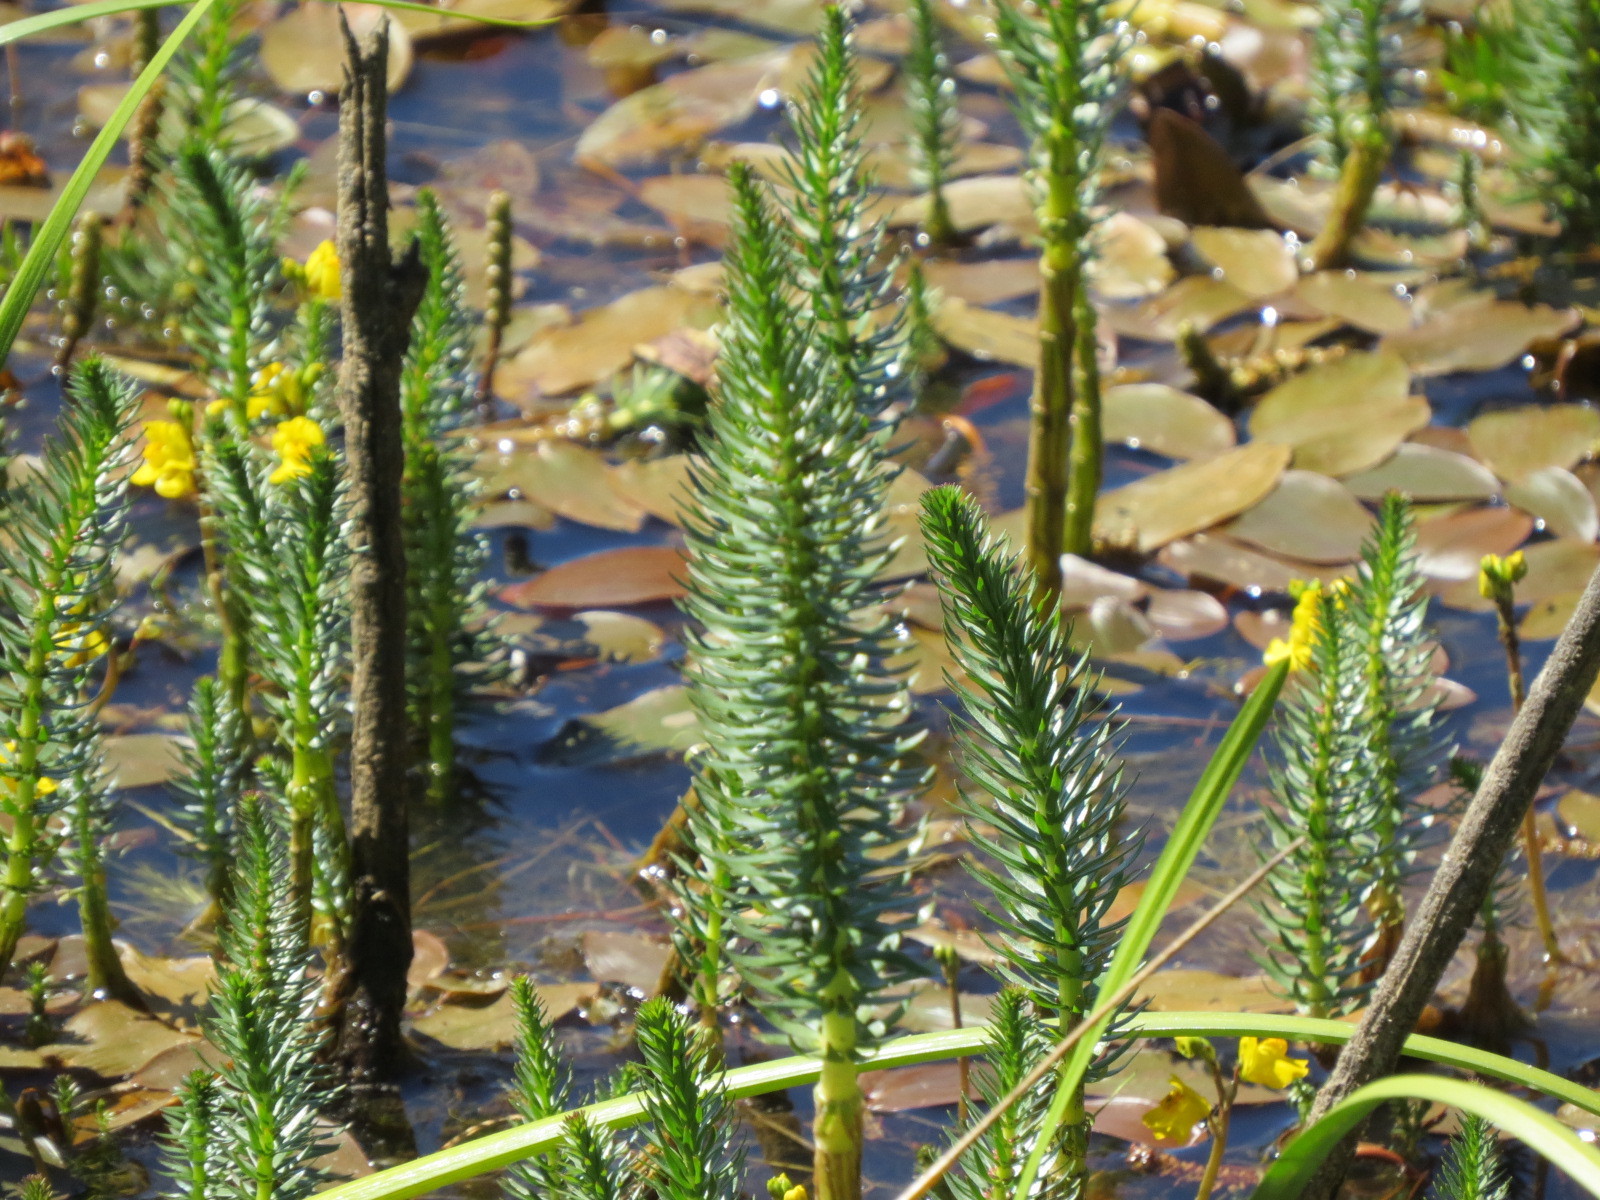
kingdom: Plantae
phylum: Tracheophyta
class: Magnoliopsida
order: Lamiales
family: Plantaginaceae
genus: Hippuris
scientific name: Hippuris vulgaris
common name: Mare's-tail
